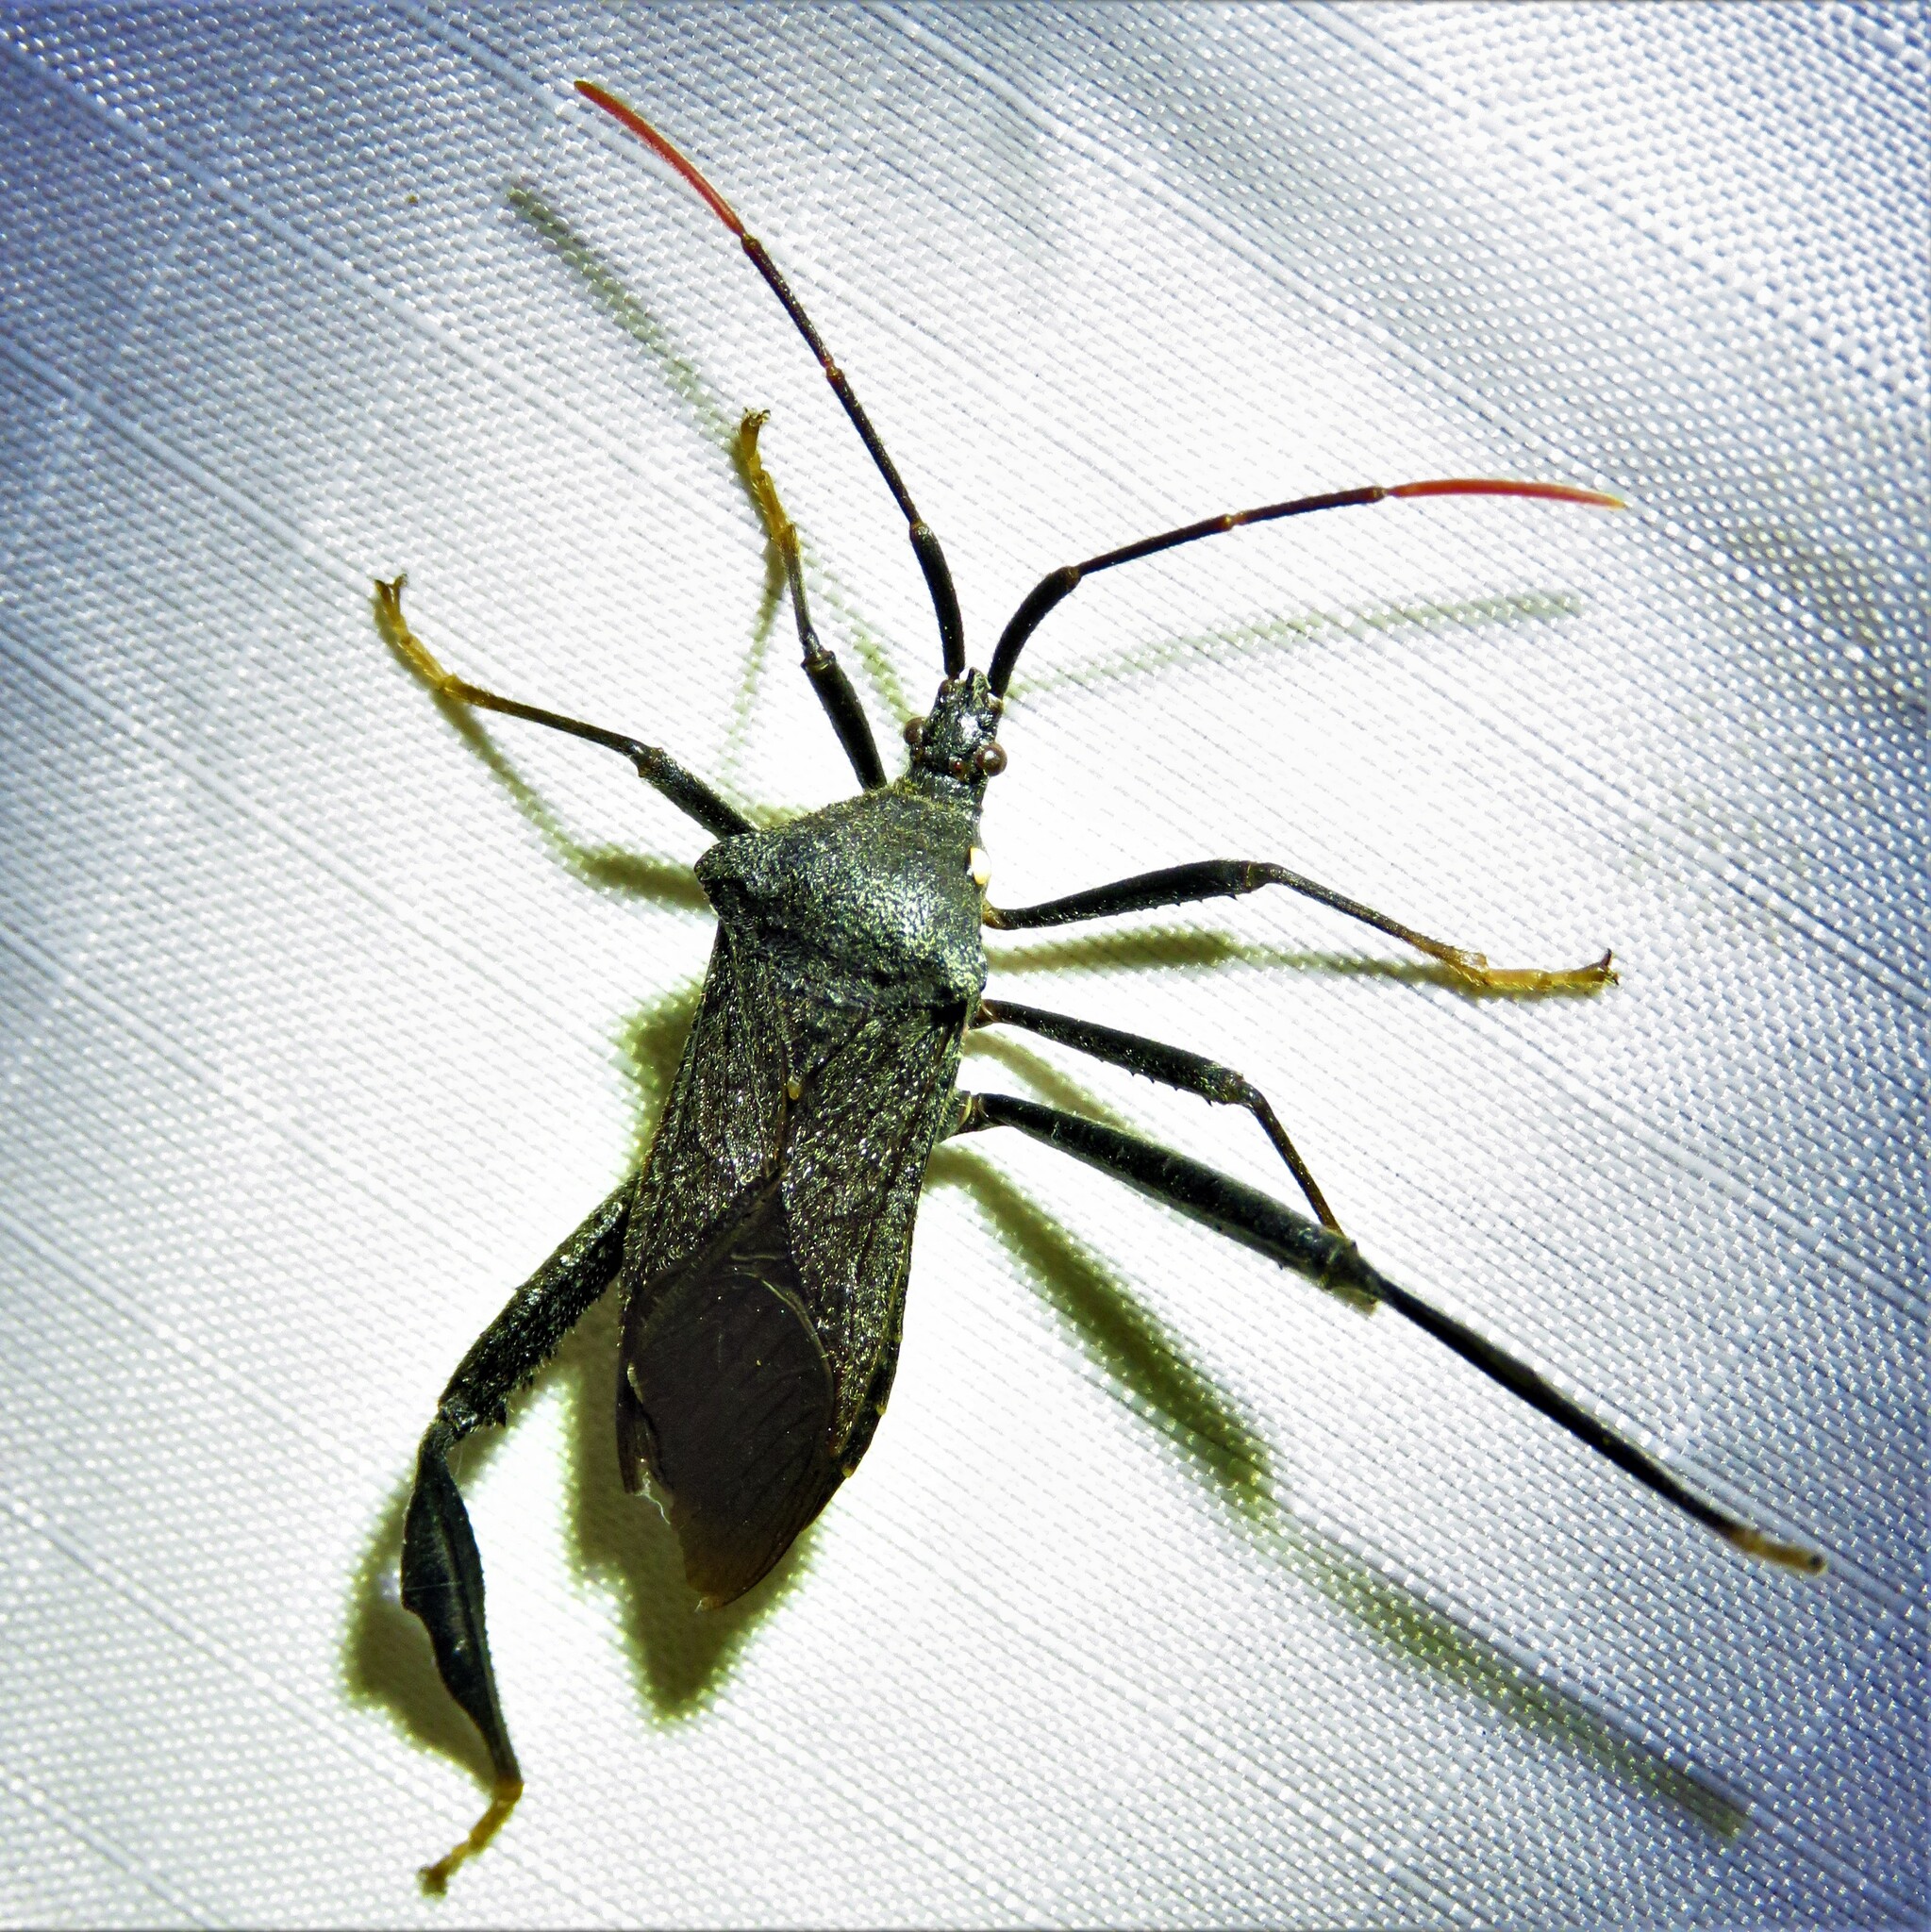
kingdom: Animalia
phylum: Arthropoda
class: Insecta
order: Hemiptera
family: Coreidae
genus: Acanthocephala
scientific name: Acanthocephala terminalis
